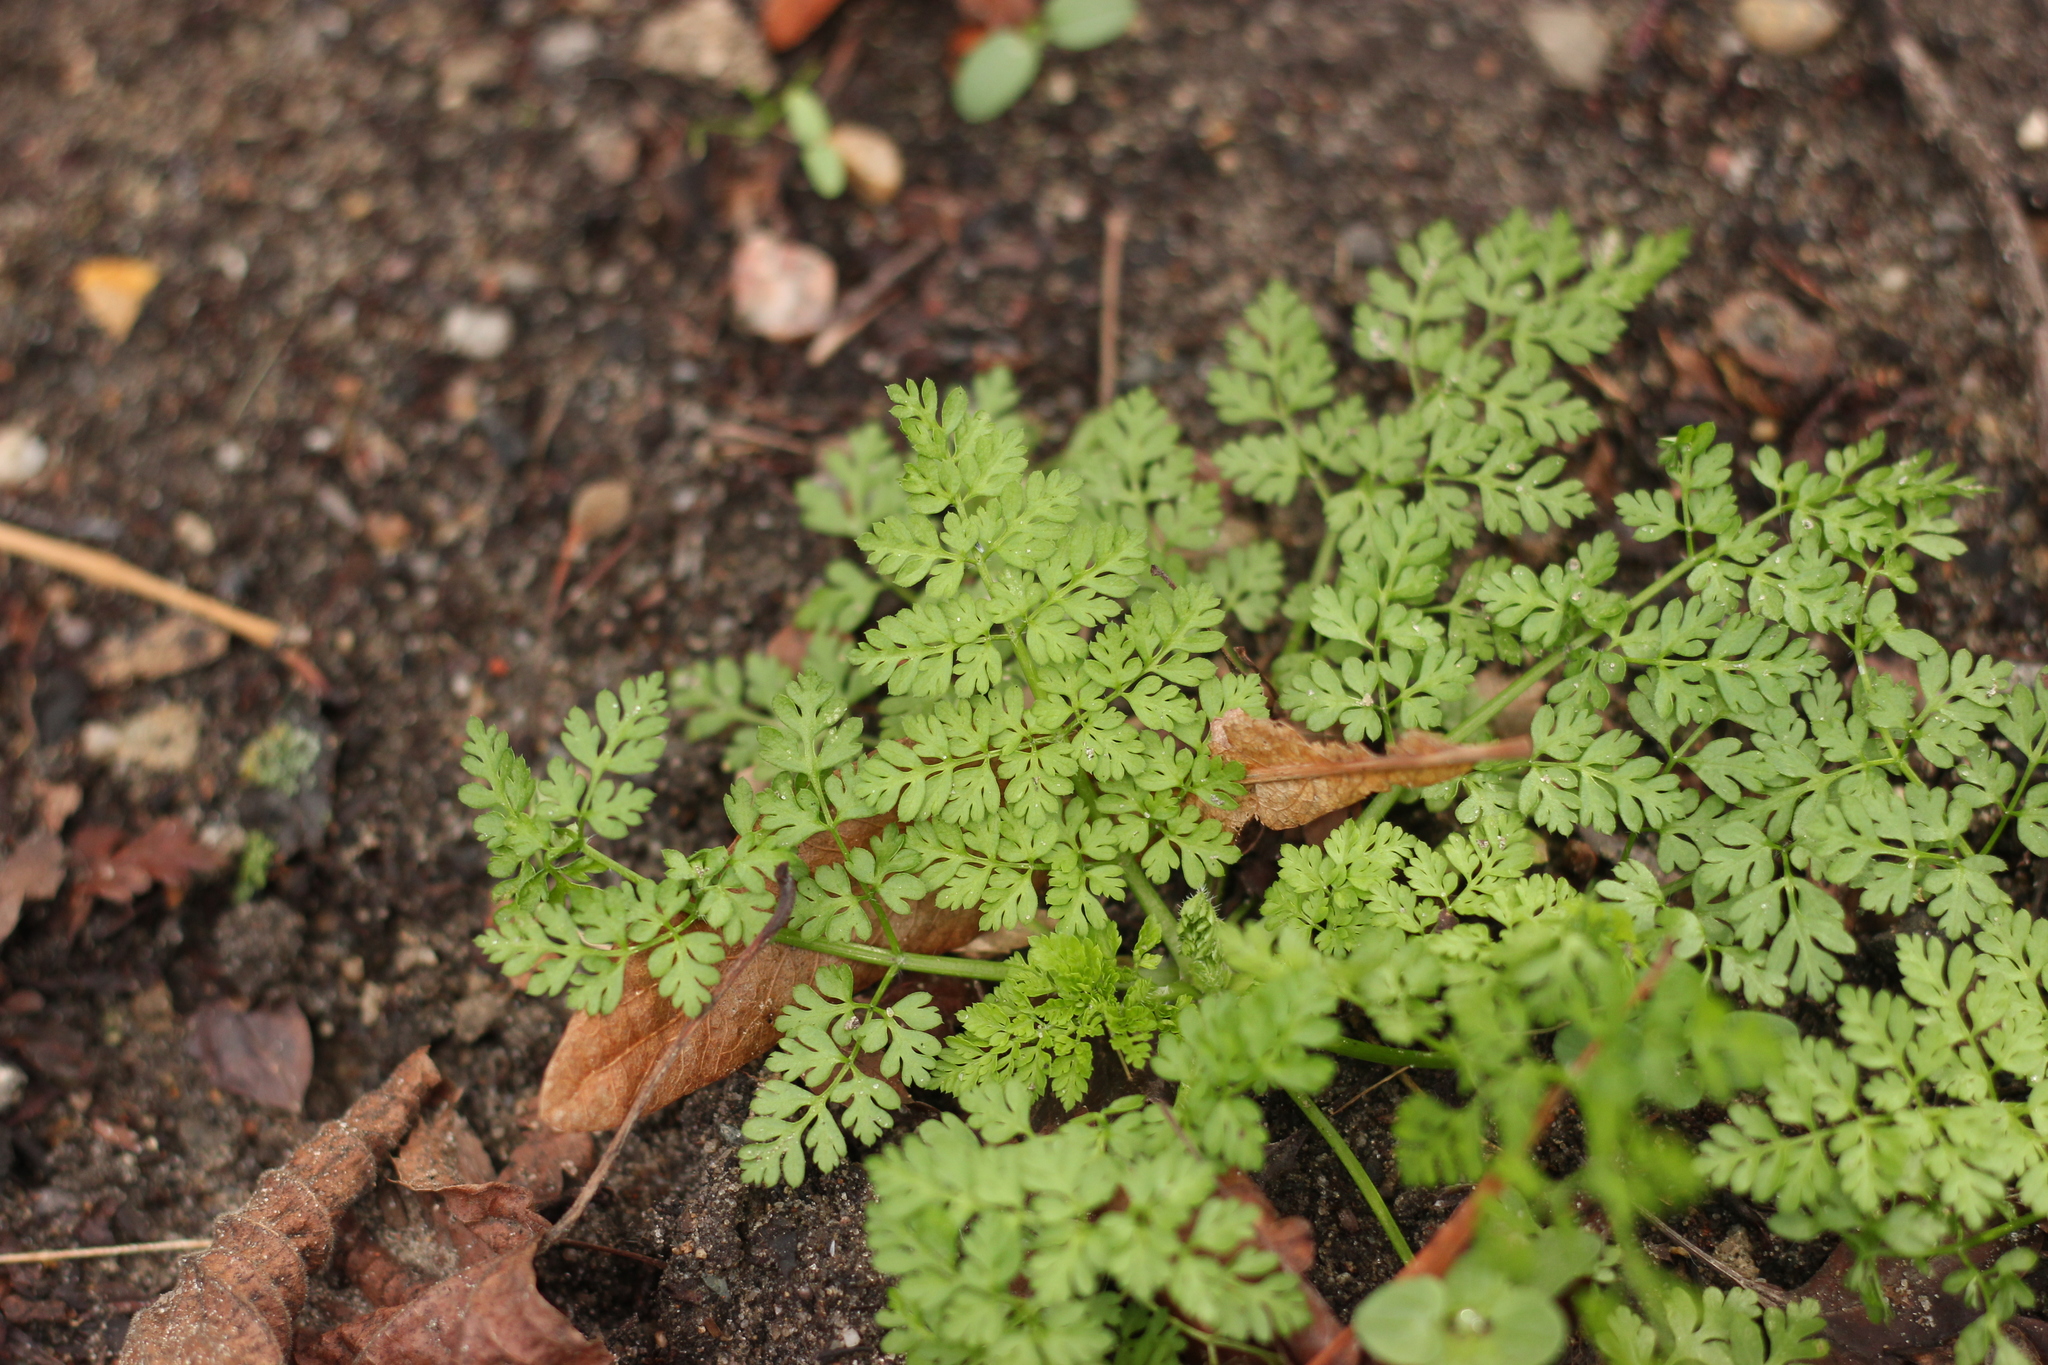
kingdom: Plantae
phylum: Tracheophyta
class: Magnoliopsida
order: Apiales
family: Apiaceae
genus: Anthriscus
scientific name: Anthriscus caucalis
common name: Bur chervil
